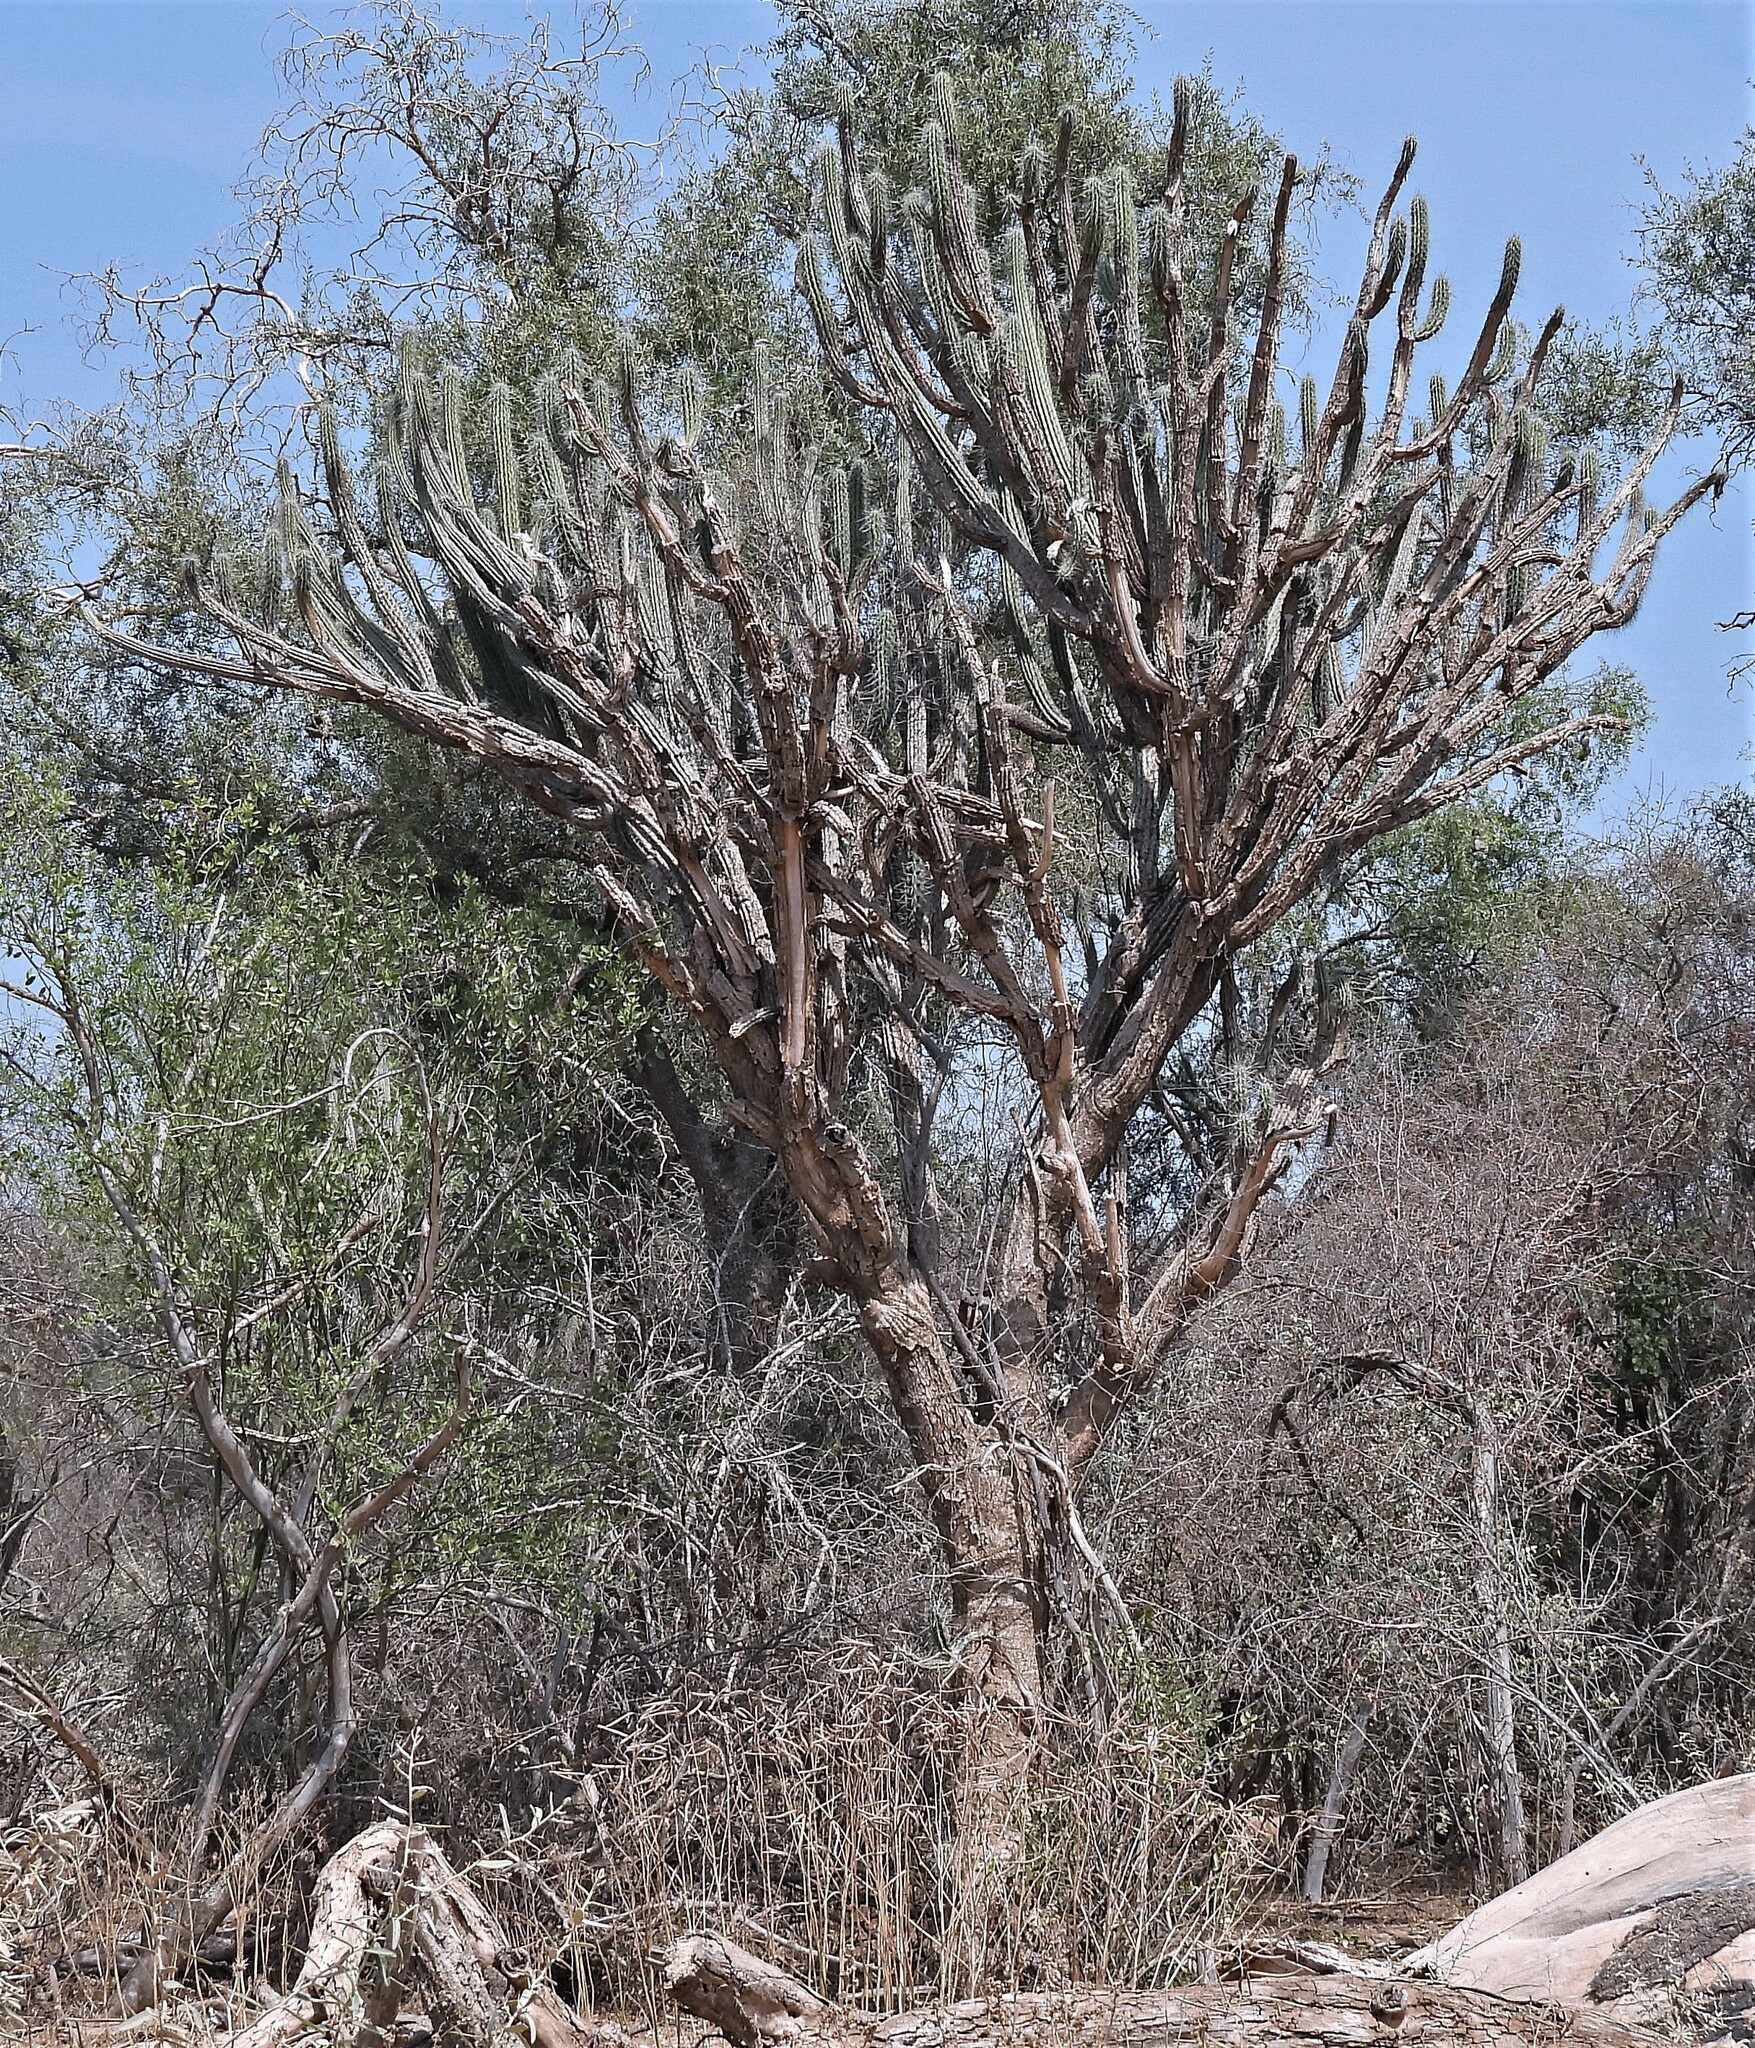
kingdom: Plantae
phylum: Tracheophyta
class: Magnoliopsida
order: Caryophyllales
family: Cactaceae
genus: Cereus
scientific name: Cereus hankeanus
